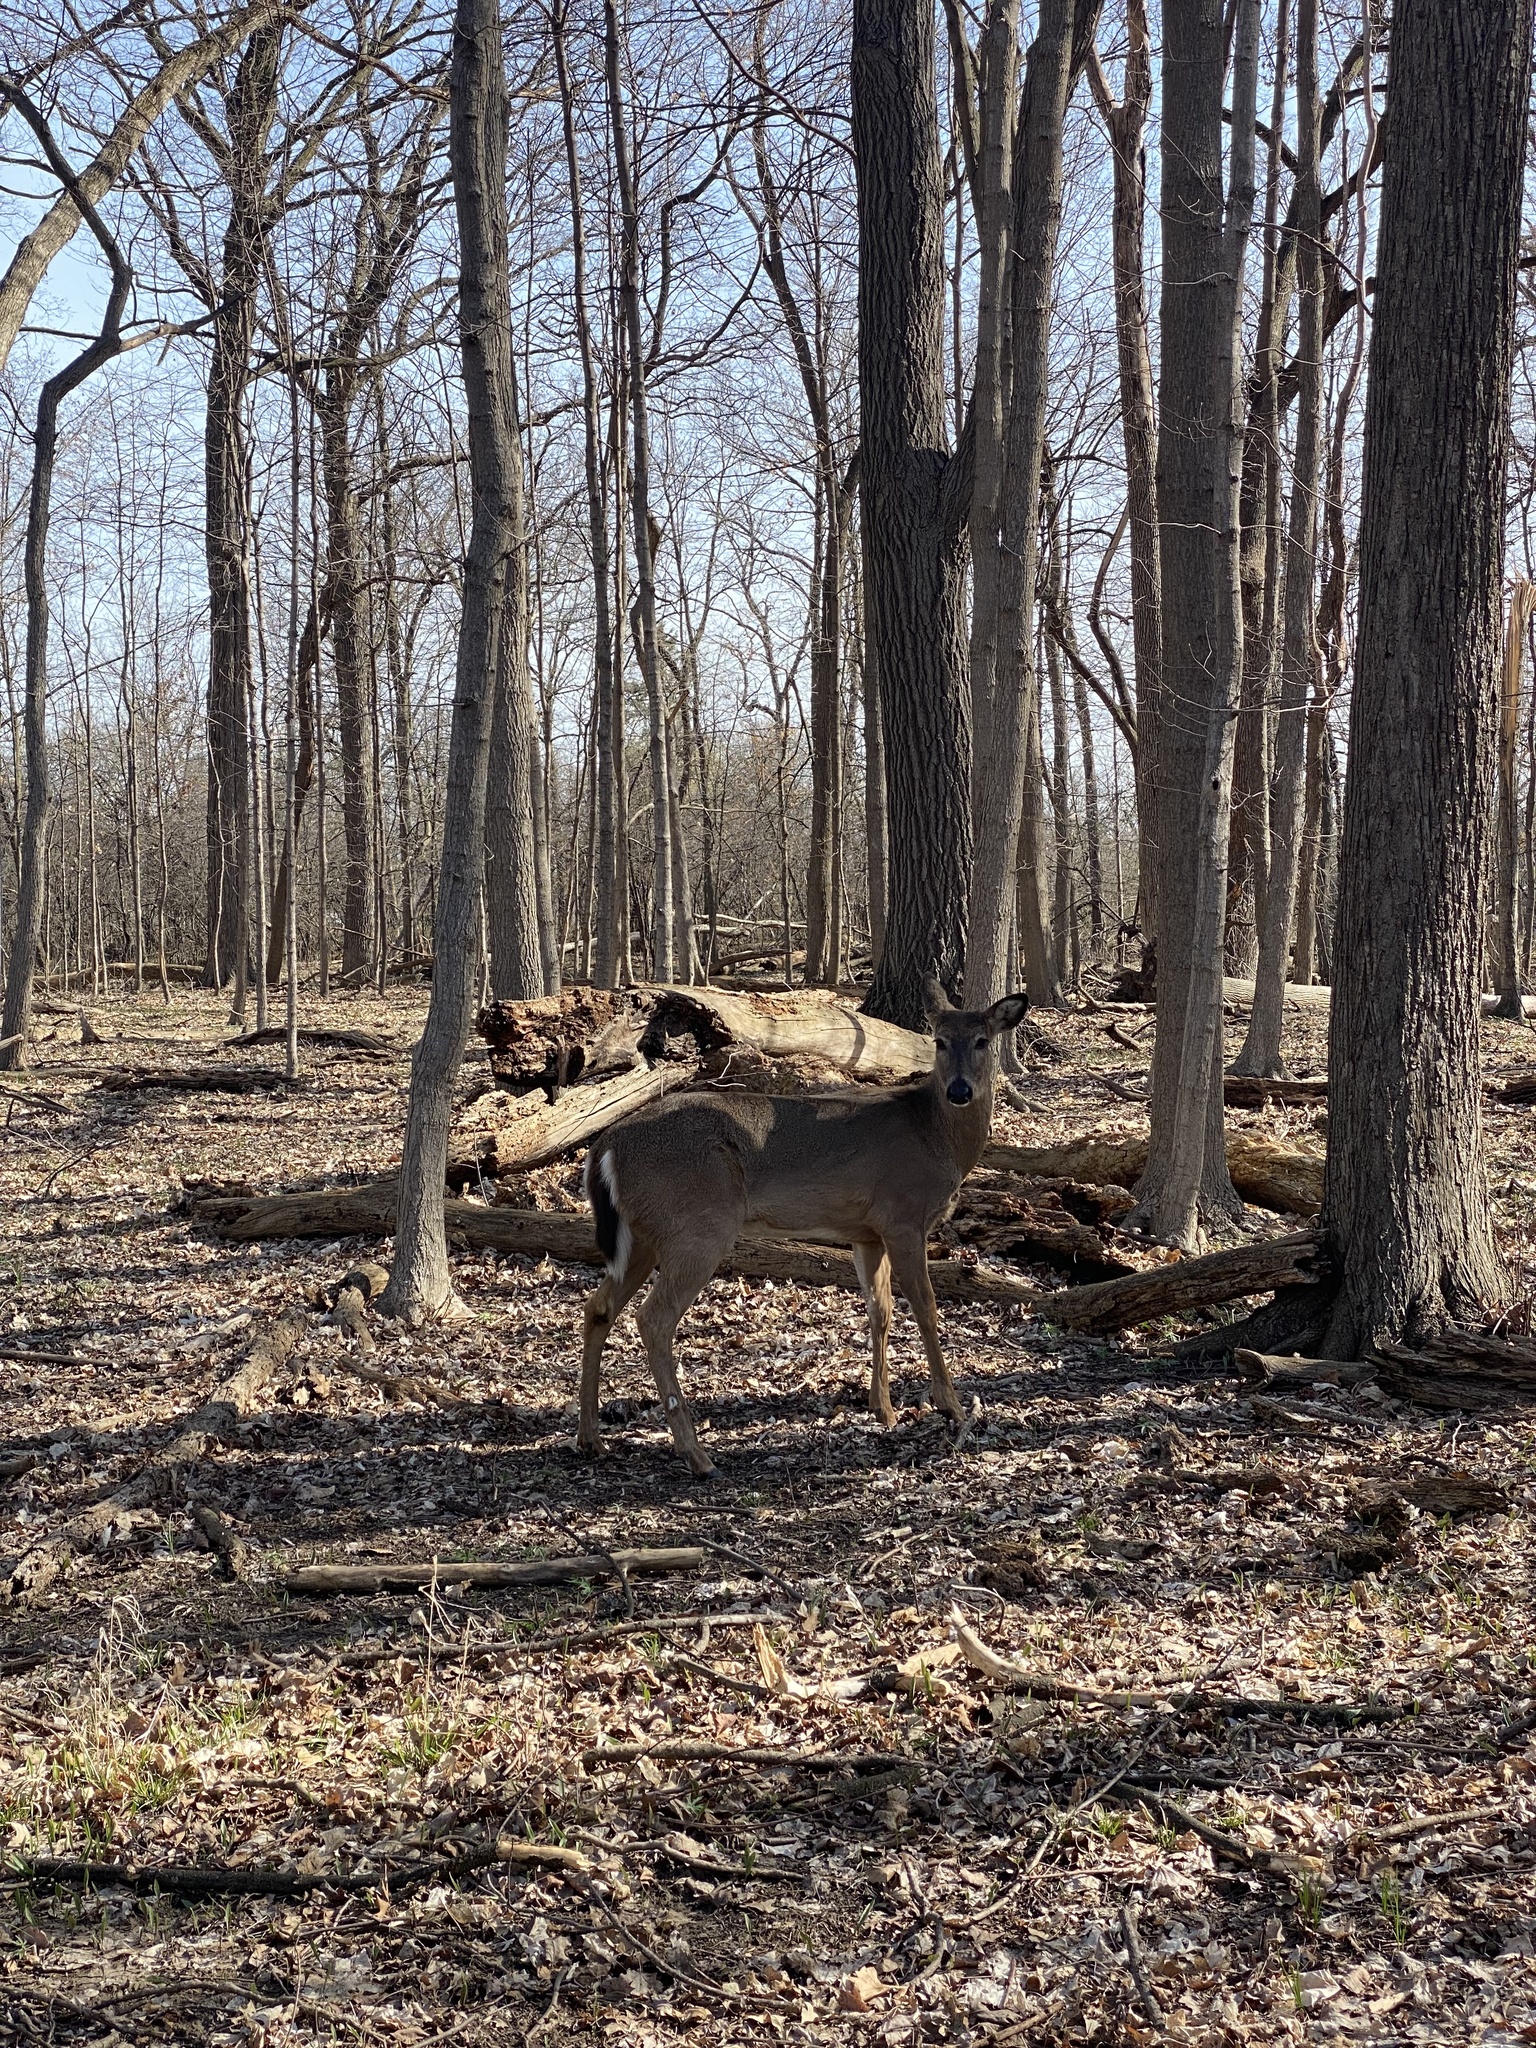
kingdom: Animalia
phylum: Chordata
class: Mammalia
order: Artiodactyla
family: Cervidae
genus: Odocoileus
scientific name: Odocoileus virginianus
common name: White-tailed deer
